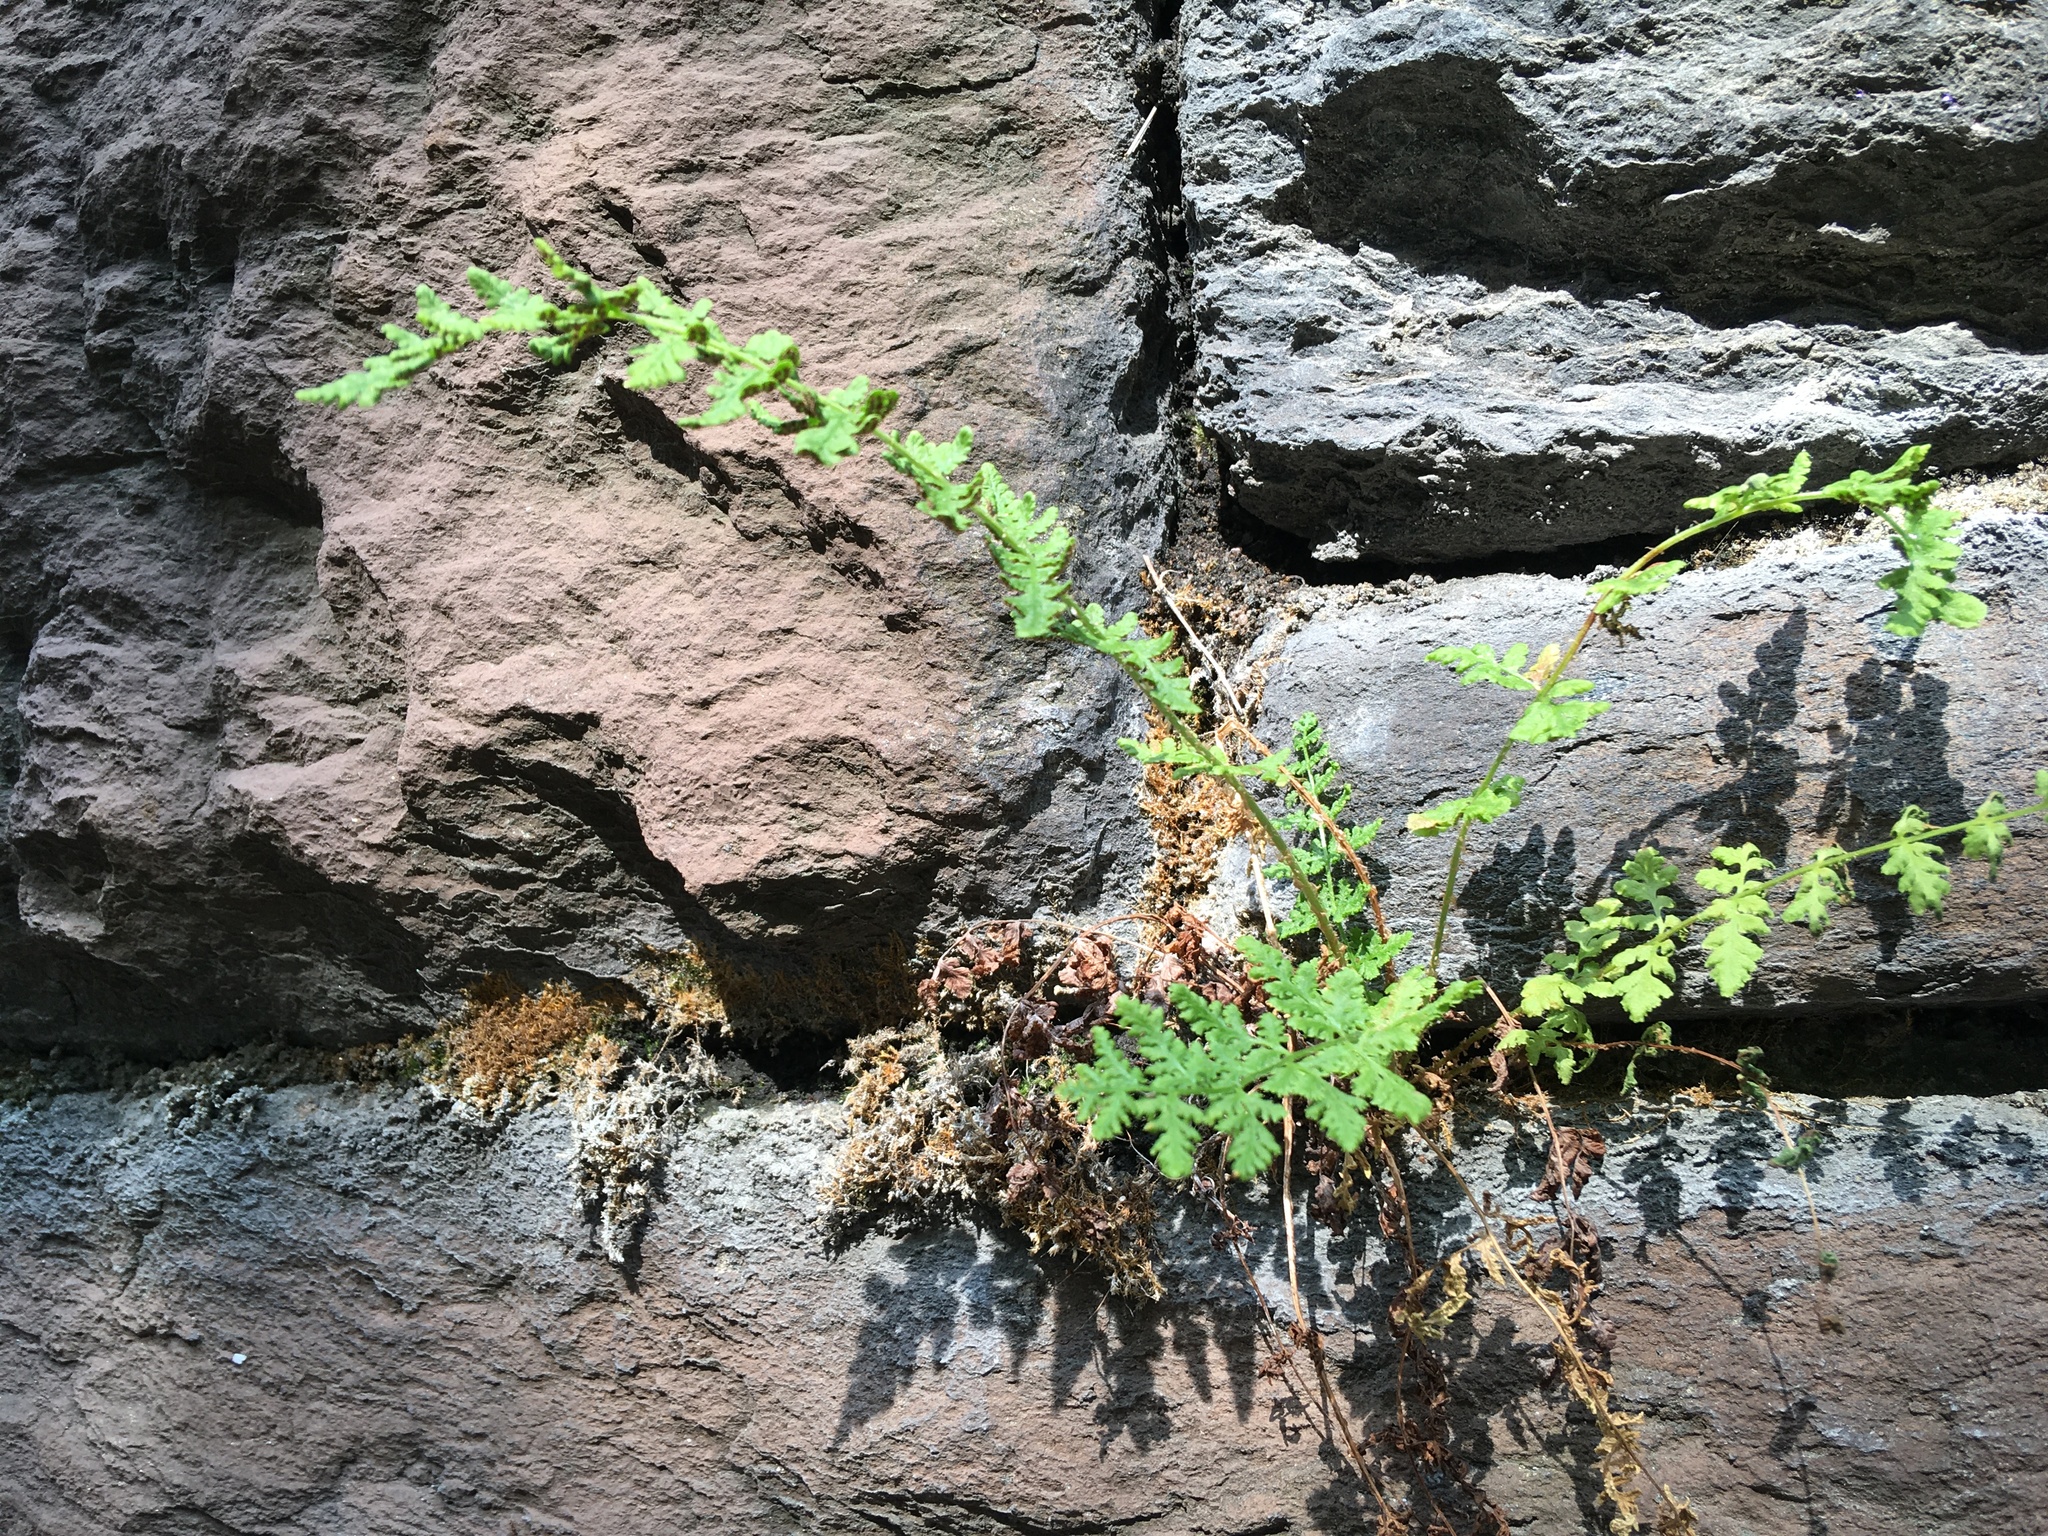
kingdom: Plantae
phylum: Tracheophyta
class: Polypodiopsida
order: Polypodiales
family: Woodsiaceae
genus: Physematium
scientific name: Physematium obtusum
